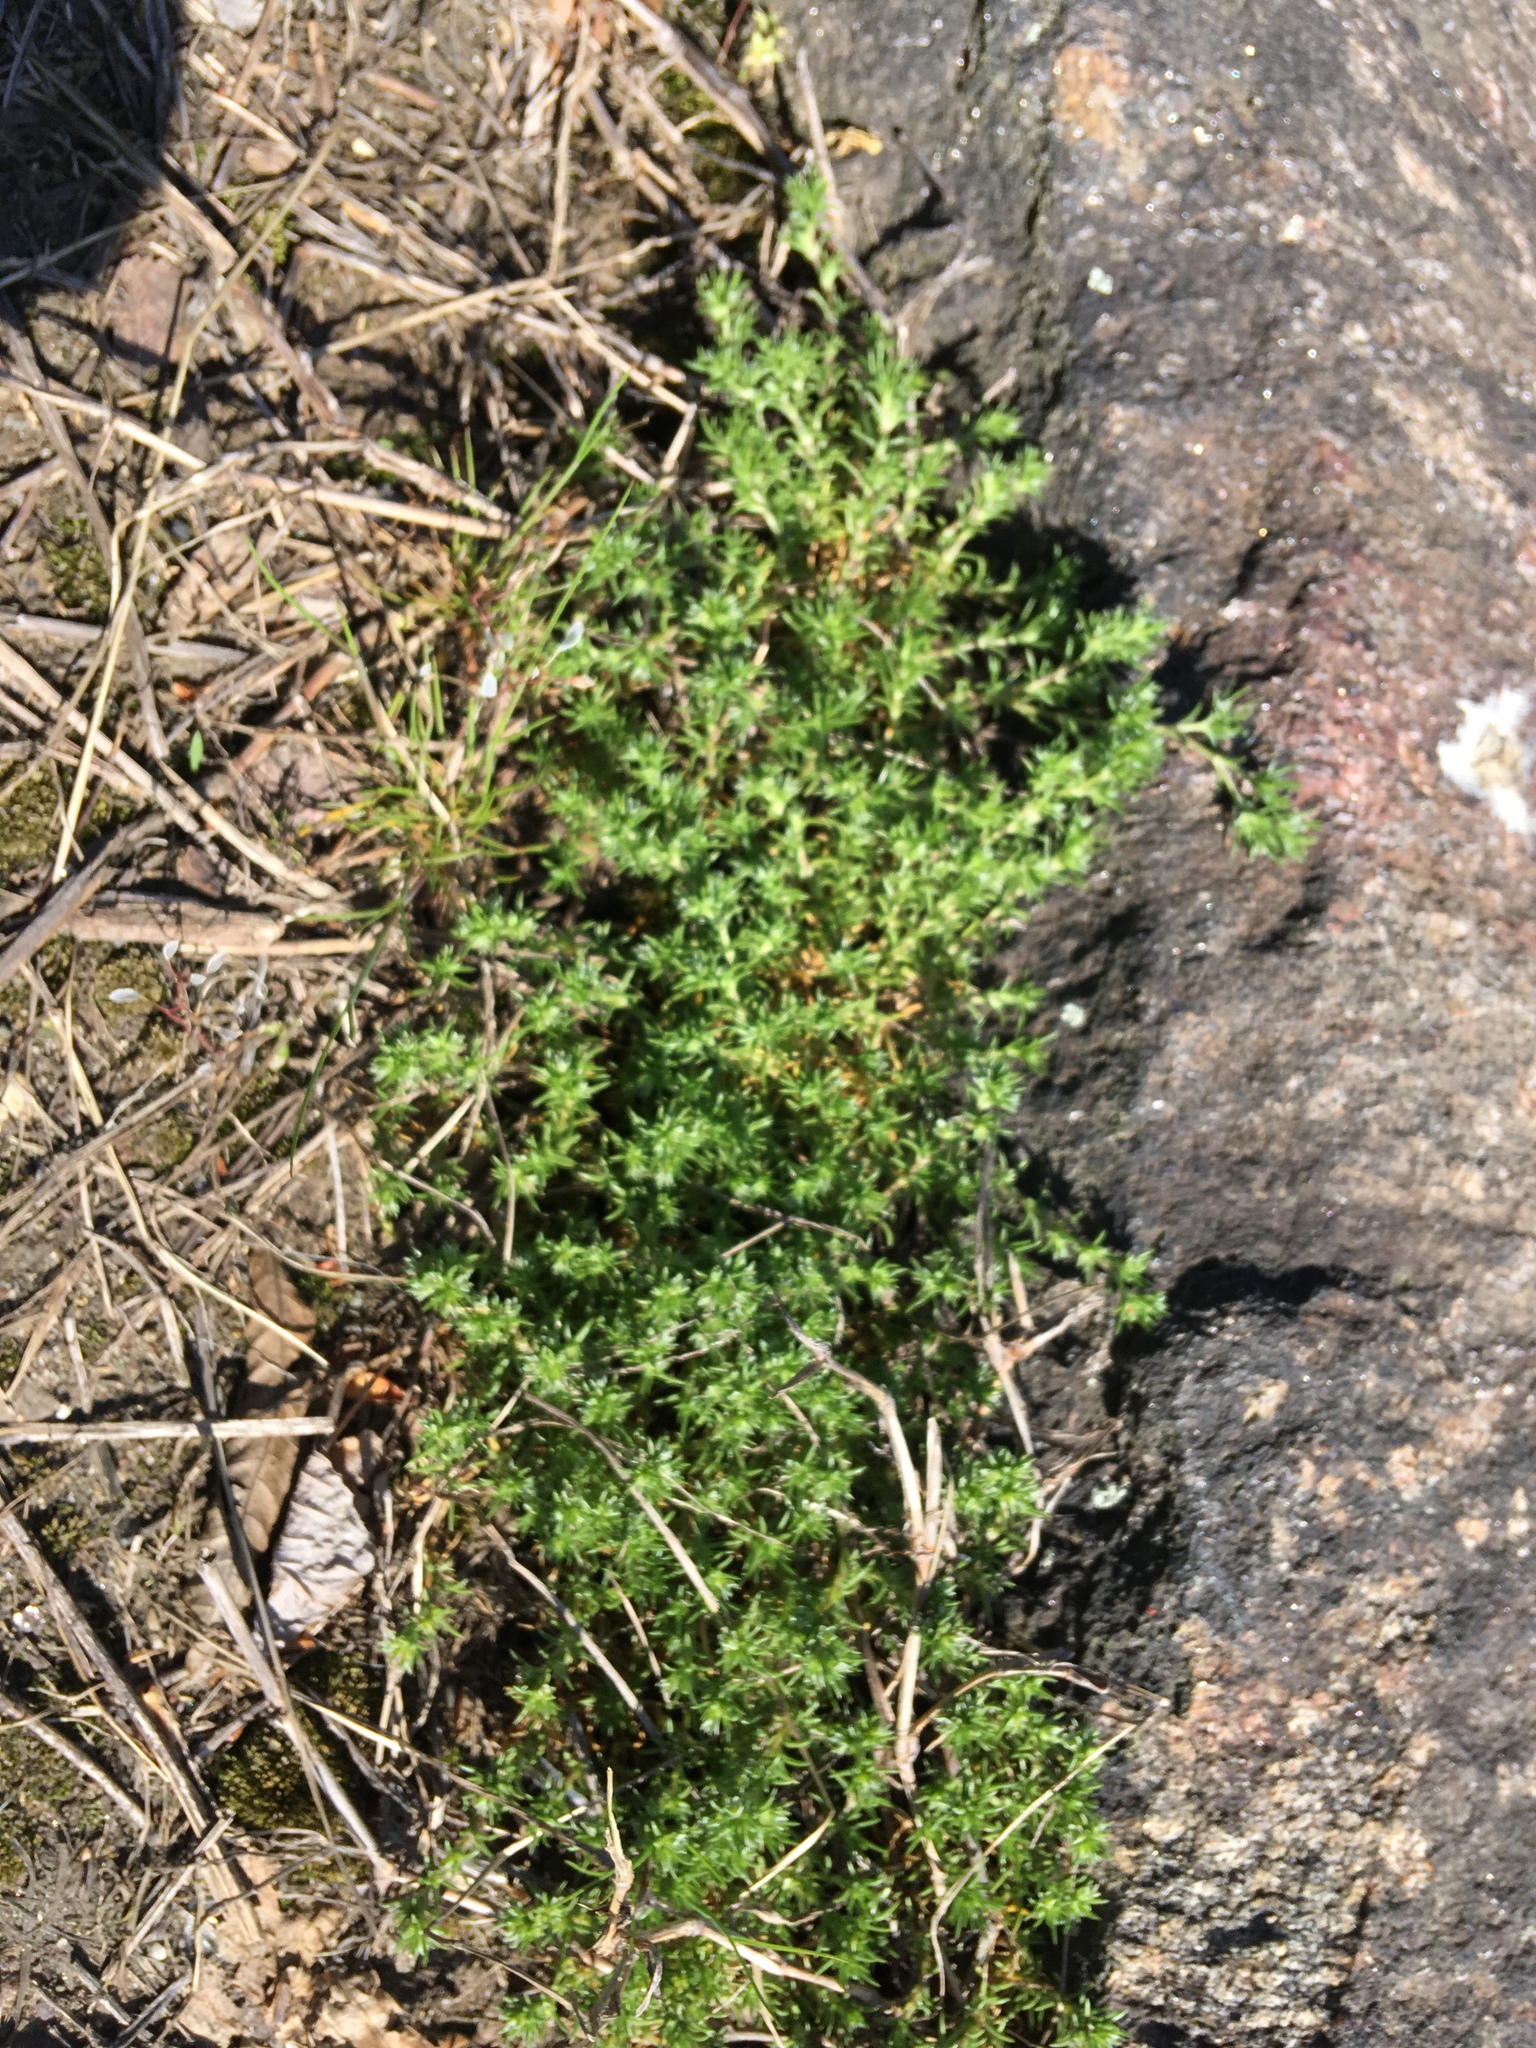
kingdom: Plantae
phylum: Tracheophyta
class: Magnoliopsida
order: Caryophyllales
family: Caryophyllaceae
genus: Scleranthus
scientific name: Scleranthus annuus
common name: Annual knawel
